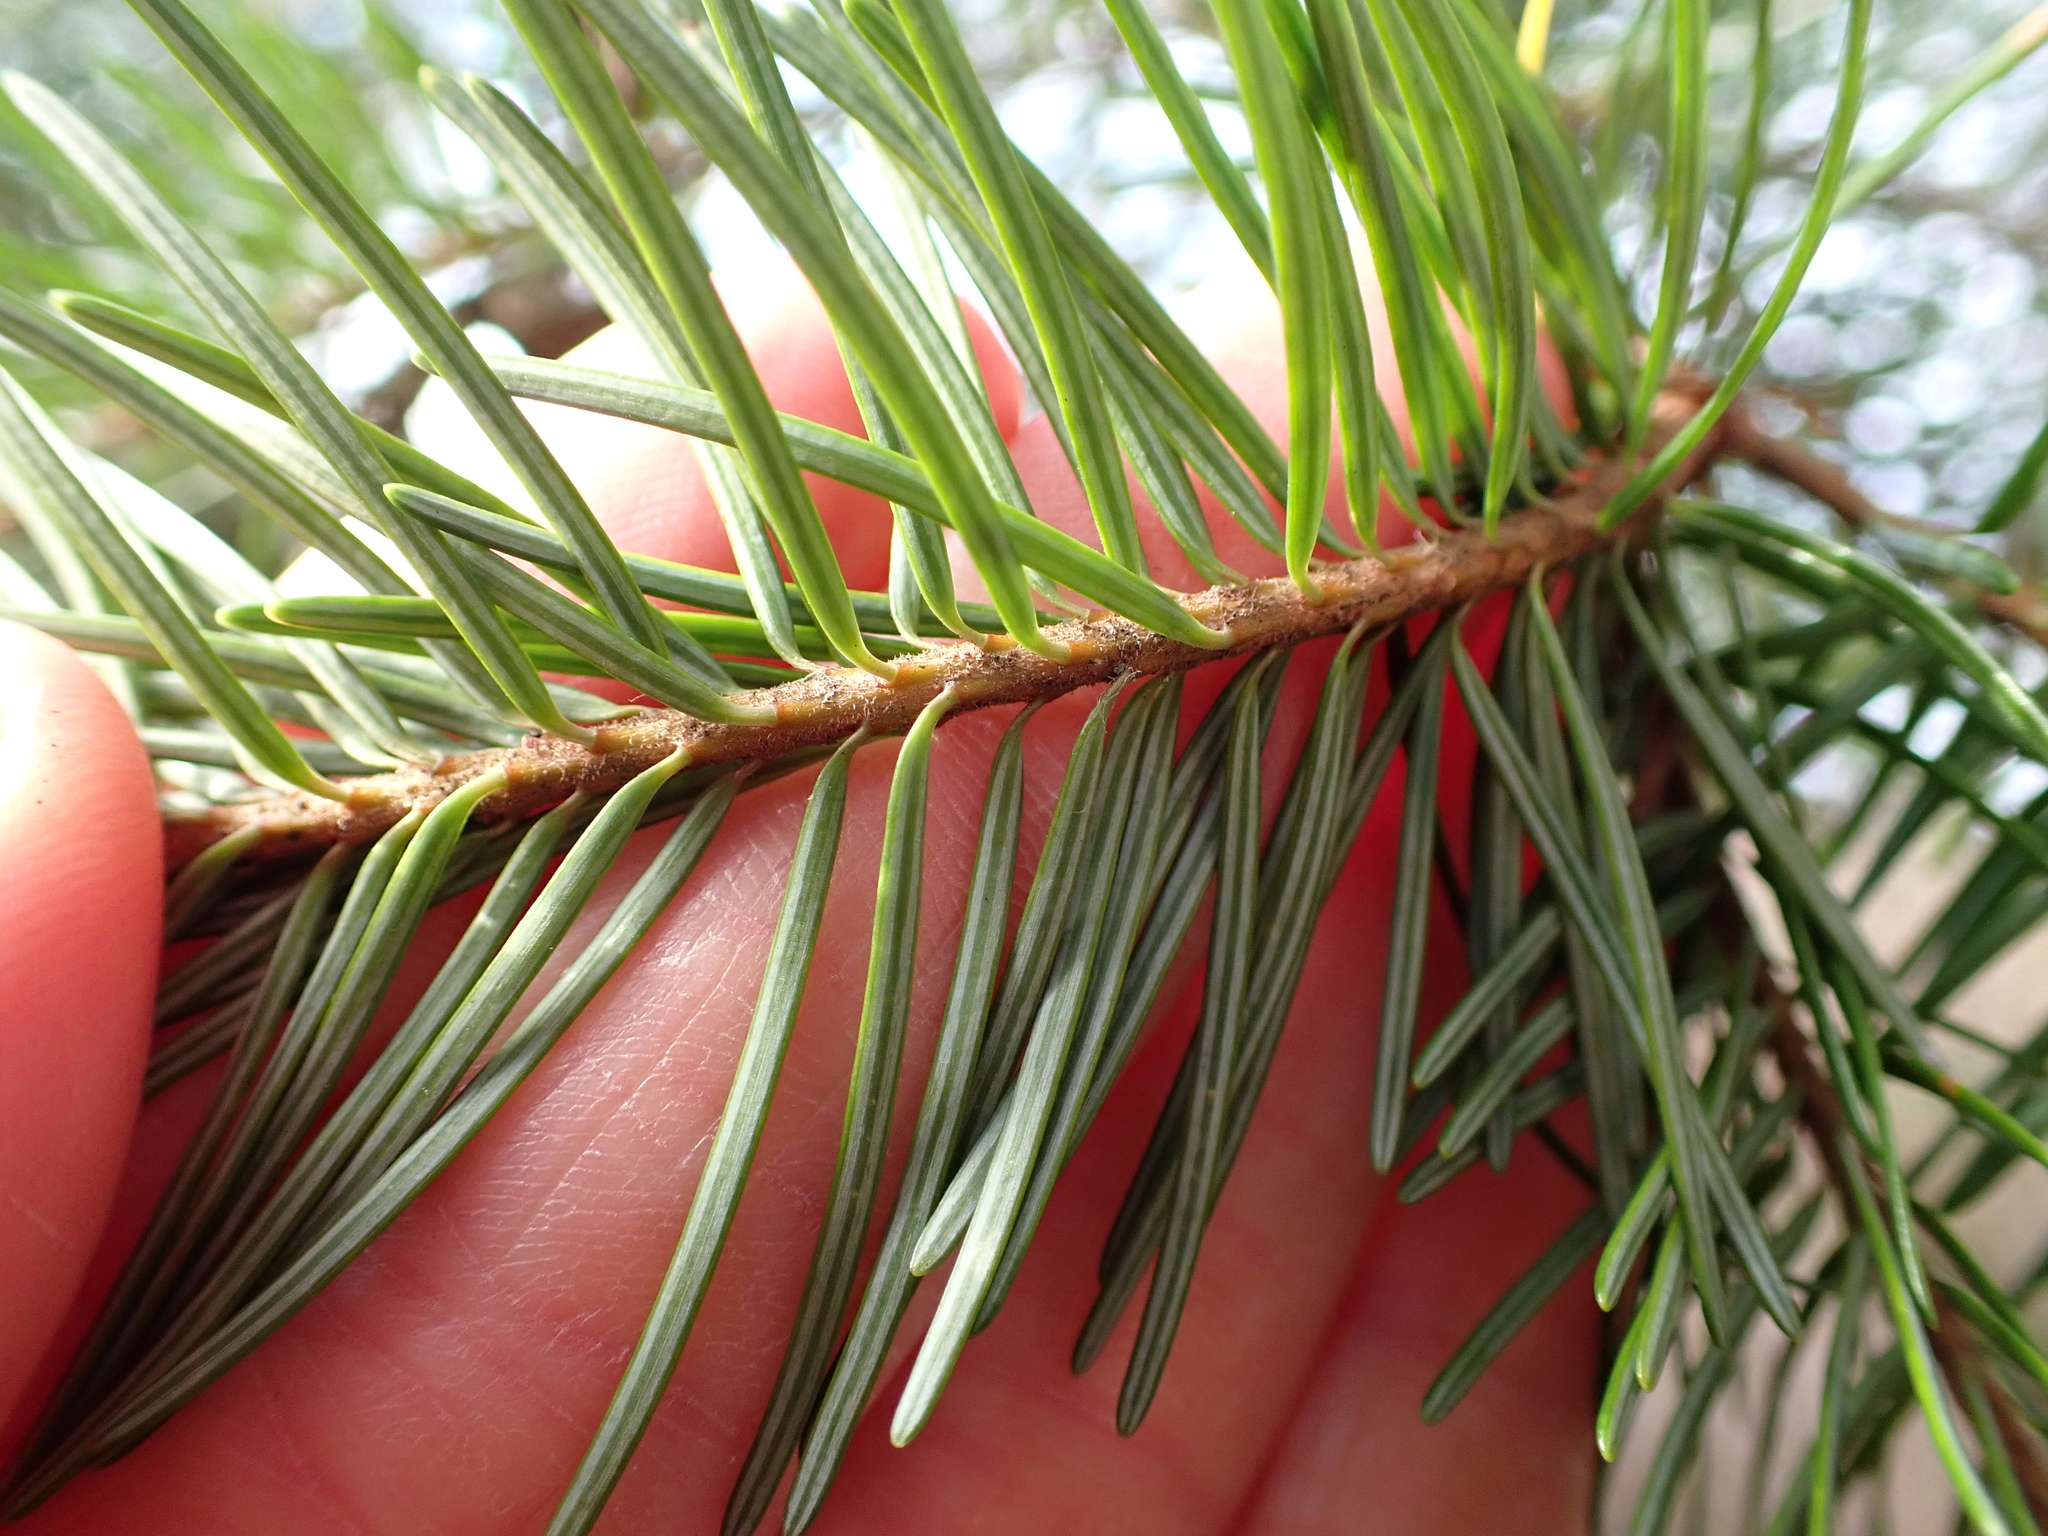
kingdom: Plantae
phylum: Tracheophyta
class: Pinopsida
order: Pinales
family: Pinaceae
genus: Pseudotsuga
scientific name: Pseudotsuga menziesii
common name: Douglas fir
